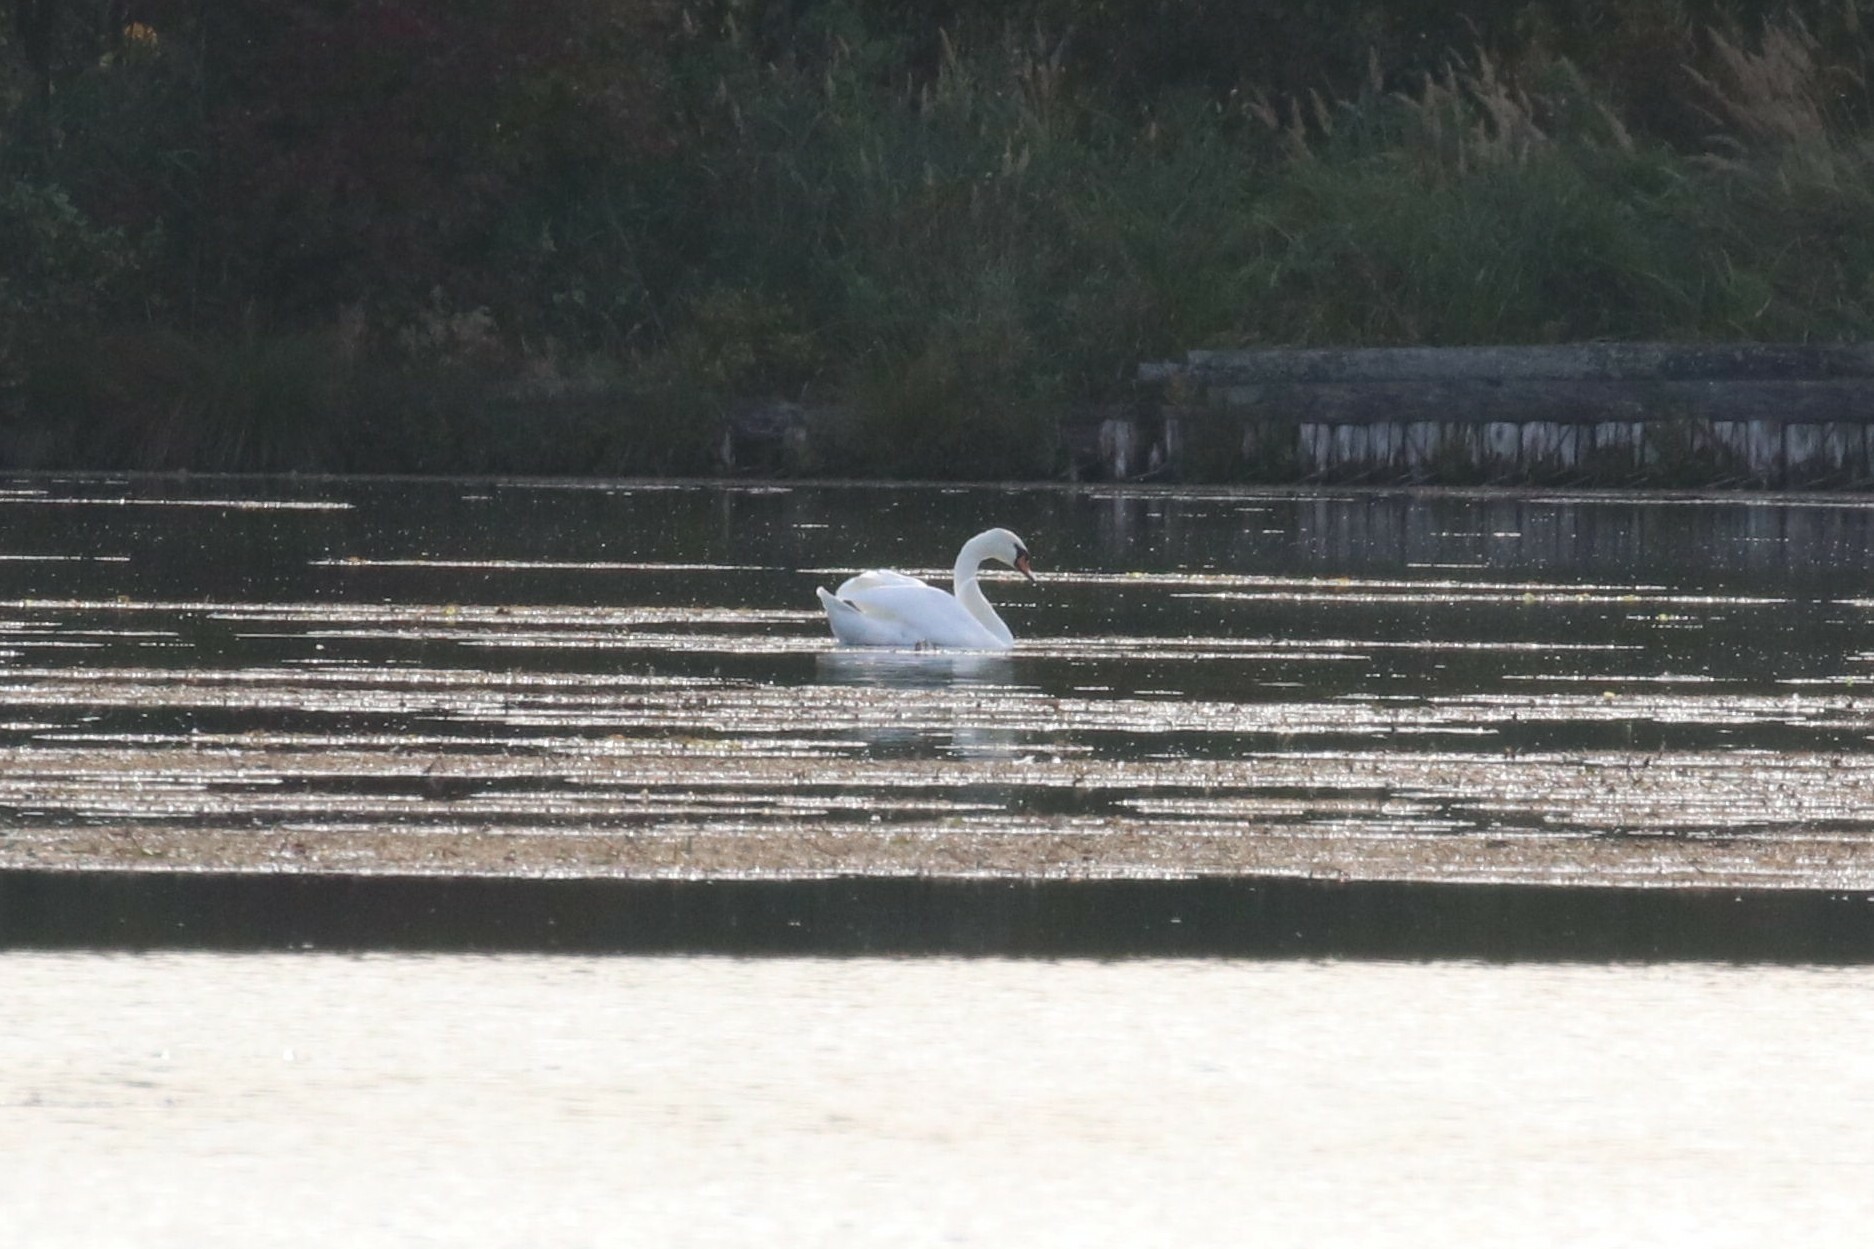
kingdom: Animalia
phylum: Chordata
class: Aves
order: Anseriformes
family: Anatidae
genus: Cygnus
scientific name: Cygnus olor
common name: Mute swan
